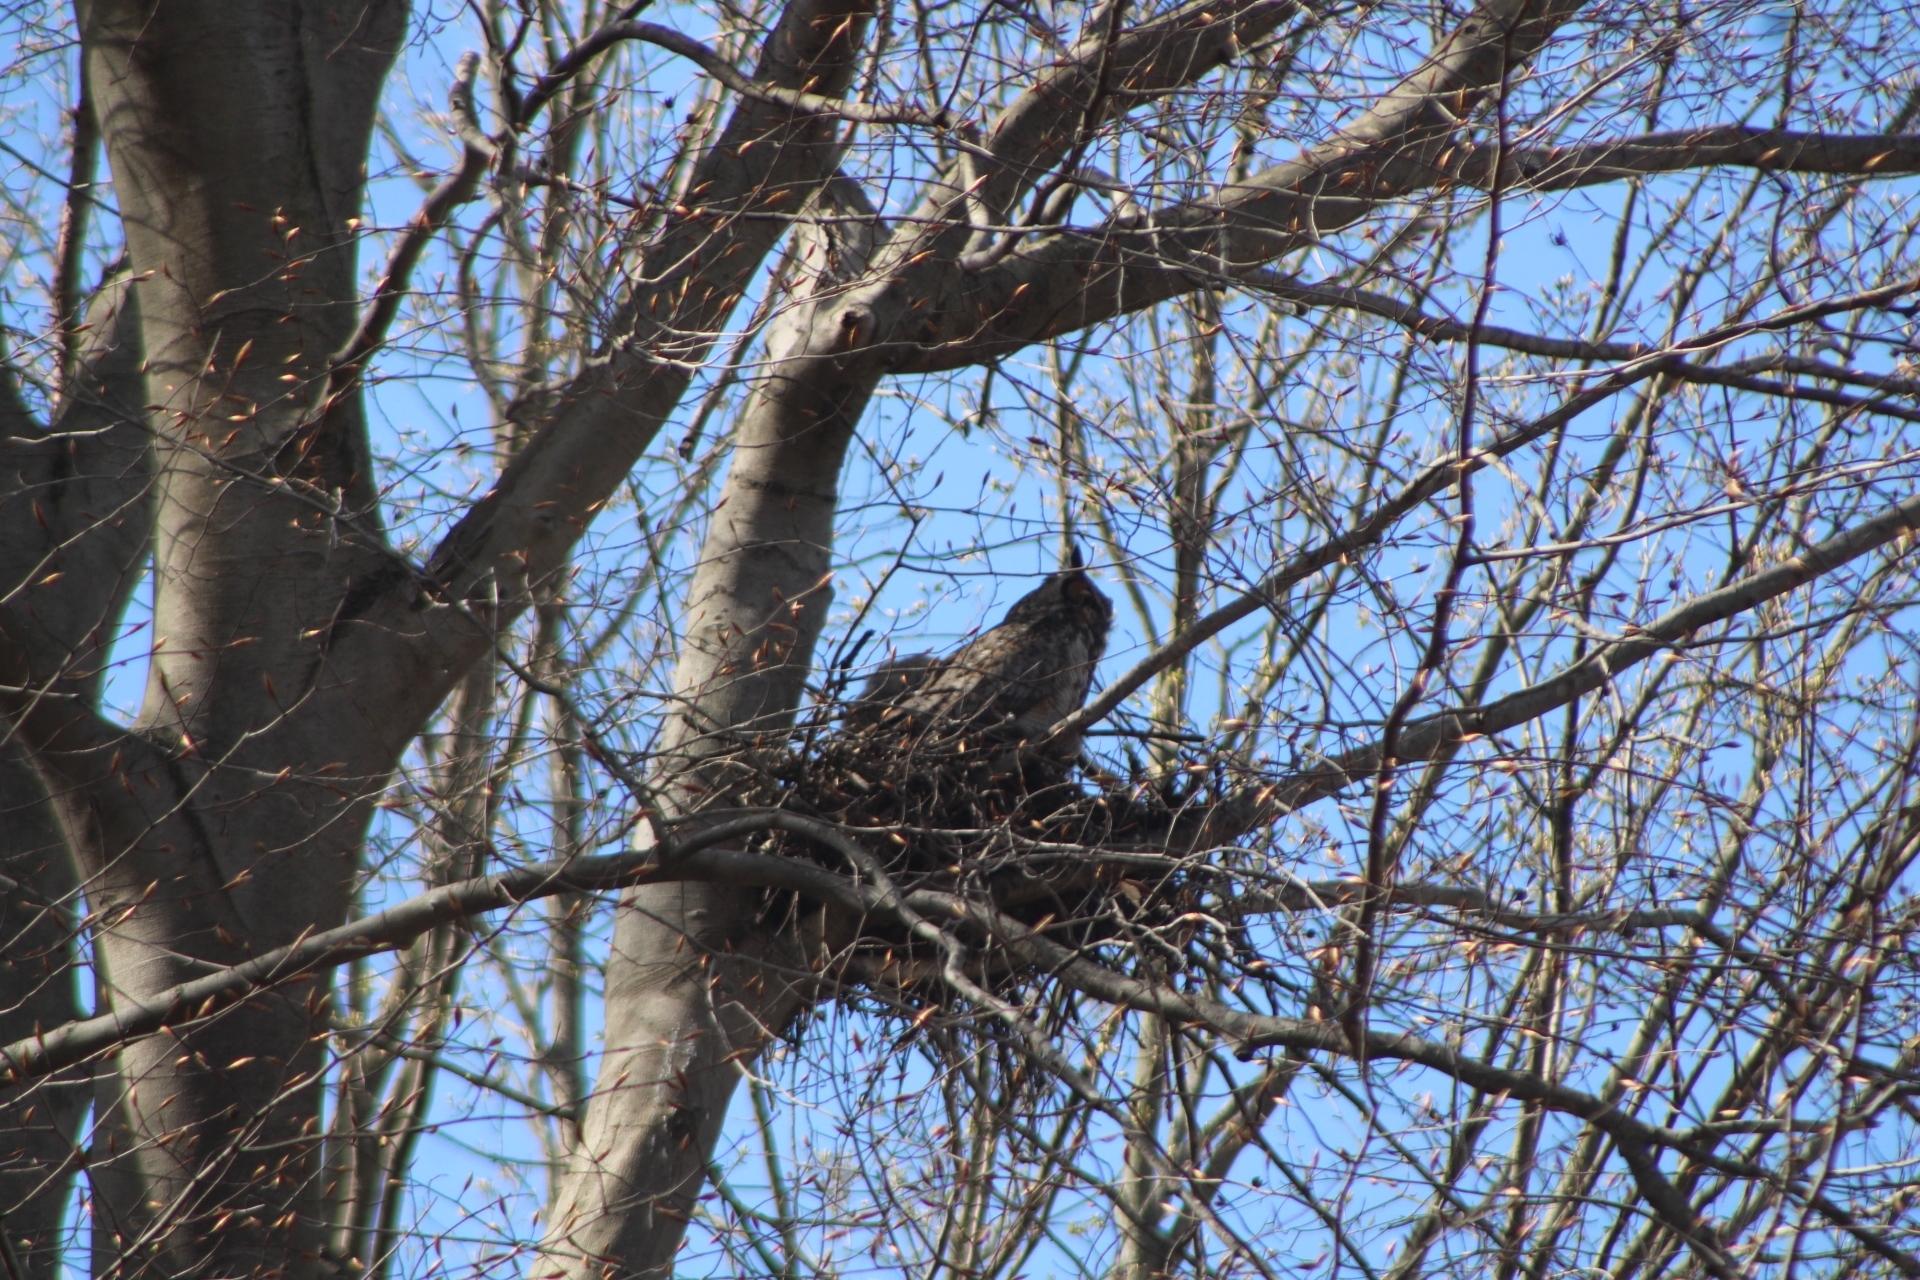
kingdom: Animalia
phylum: Chordata
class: Aves
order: Strigiformes
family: Strigidae
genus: Bubo
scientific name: Bubo virginianus
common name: Great horned owl
